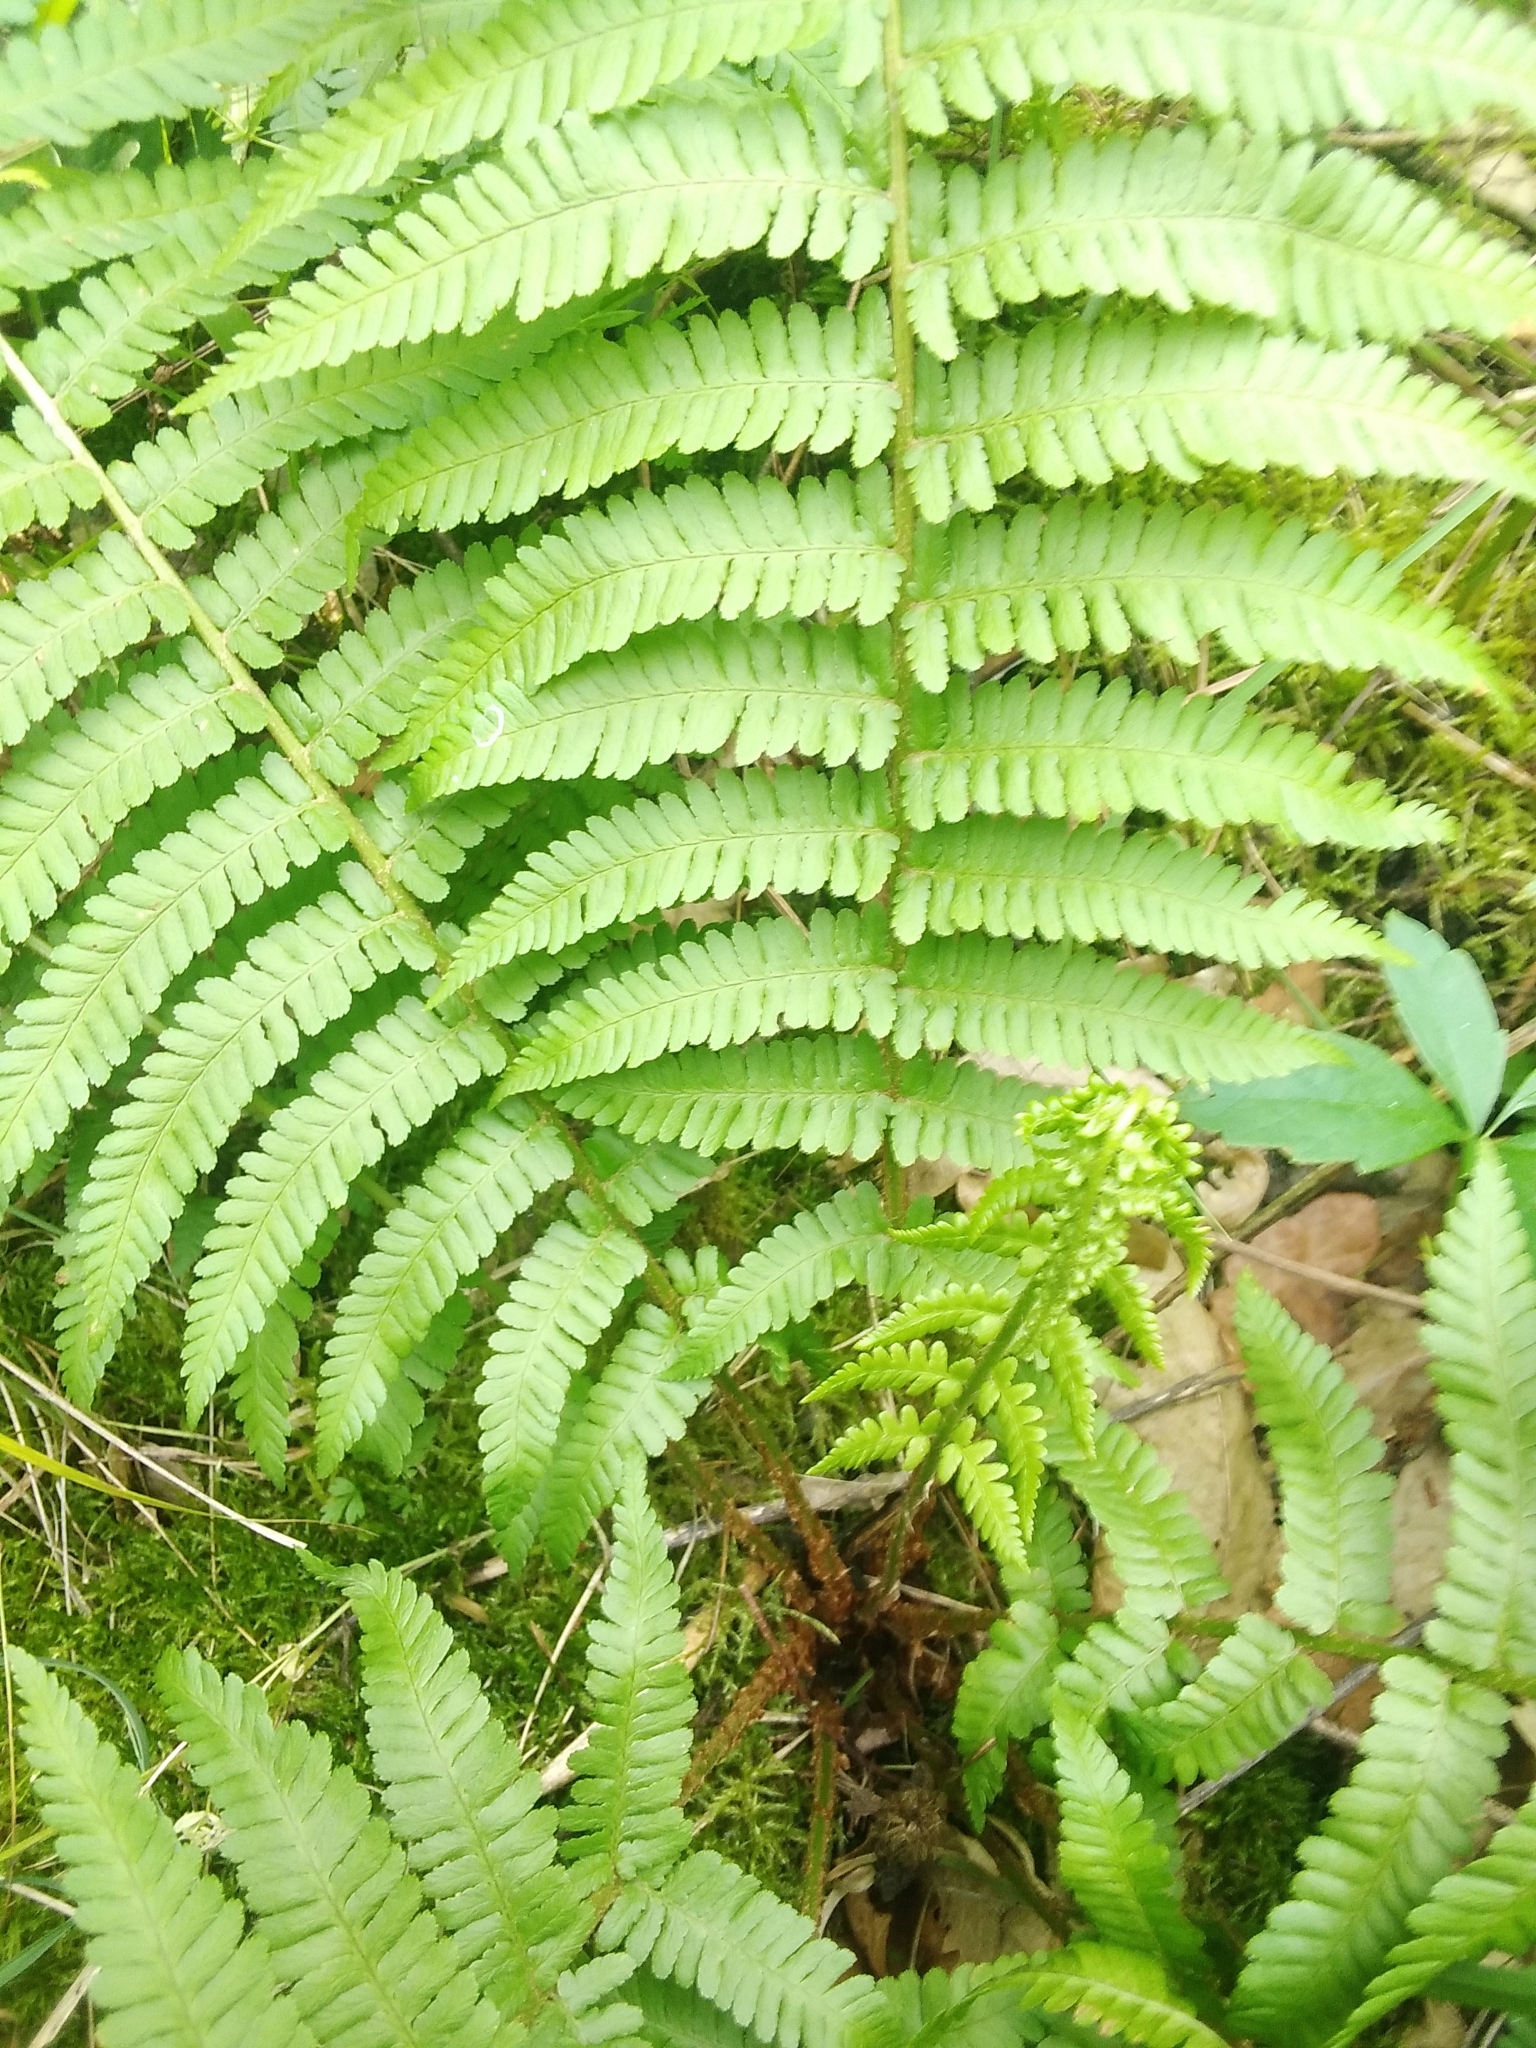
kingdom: Plantae
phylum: Tracheophyta
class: Polypodiopsida
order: Polypodiales
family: Dryopteridaceae
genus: Dryopteris
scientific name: Dryopteris filix-mas
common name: Male fern
